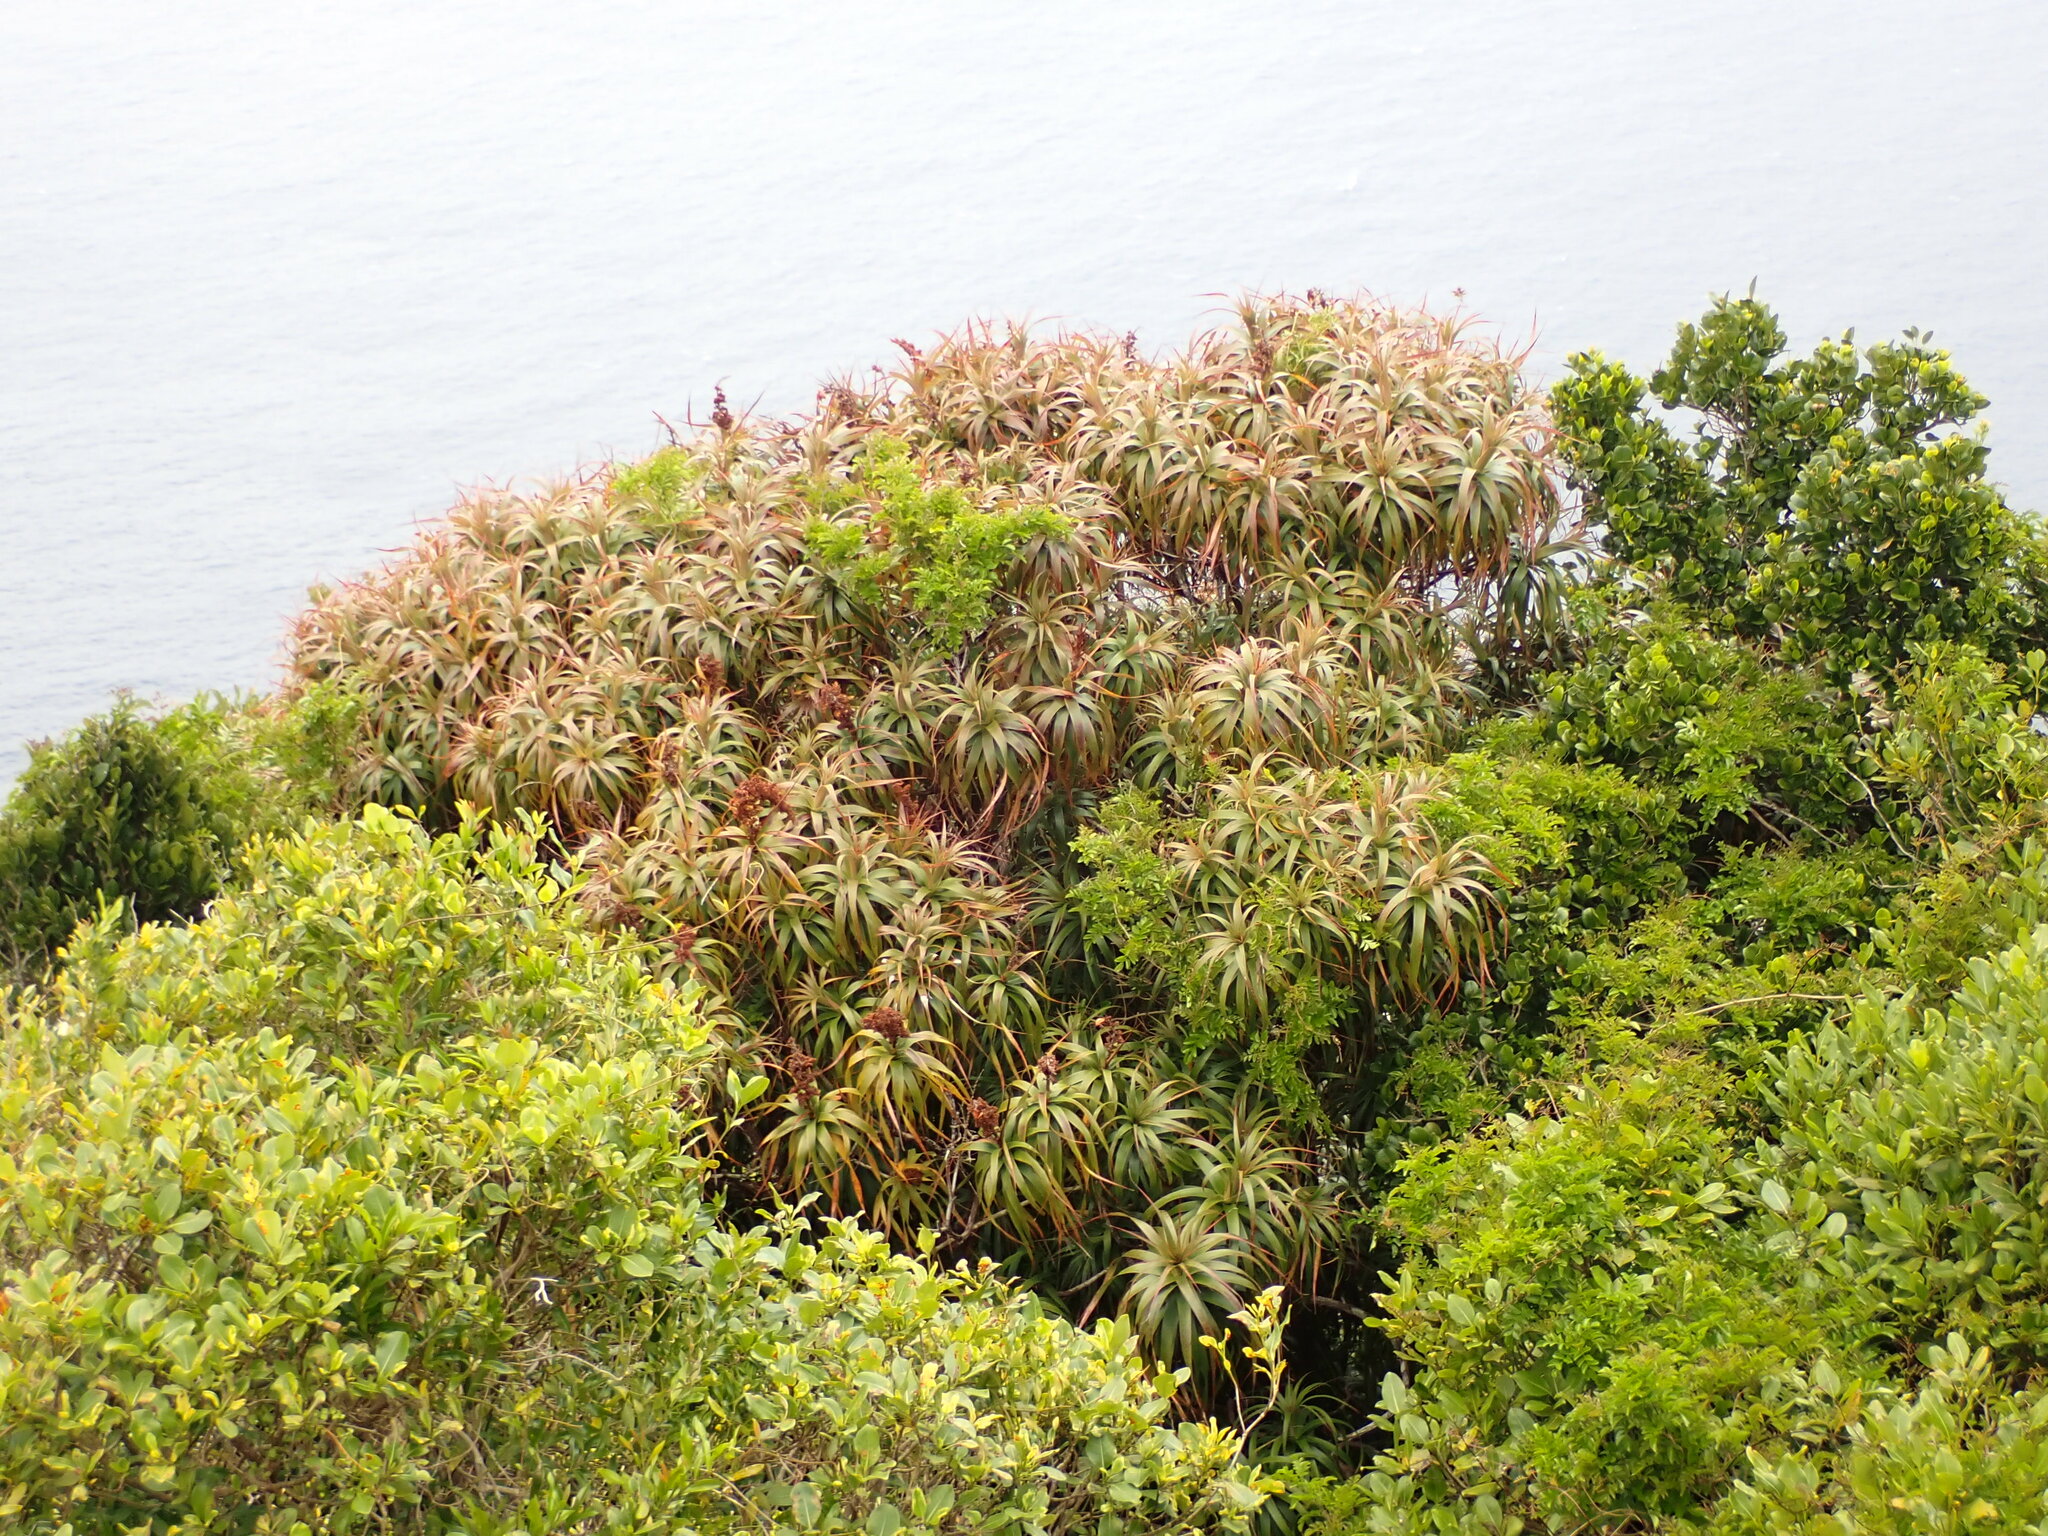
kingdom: Plantae
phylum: Tracheophyta
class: Magnoliopsida
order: Ericales
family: Ericaceae
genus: Dracophyllum
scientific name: Dracophyllum fitzgeraldii
